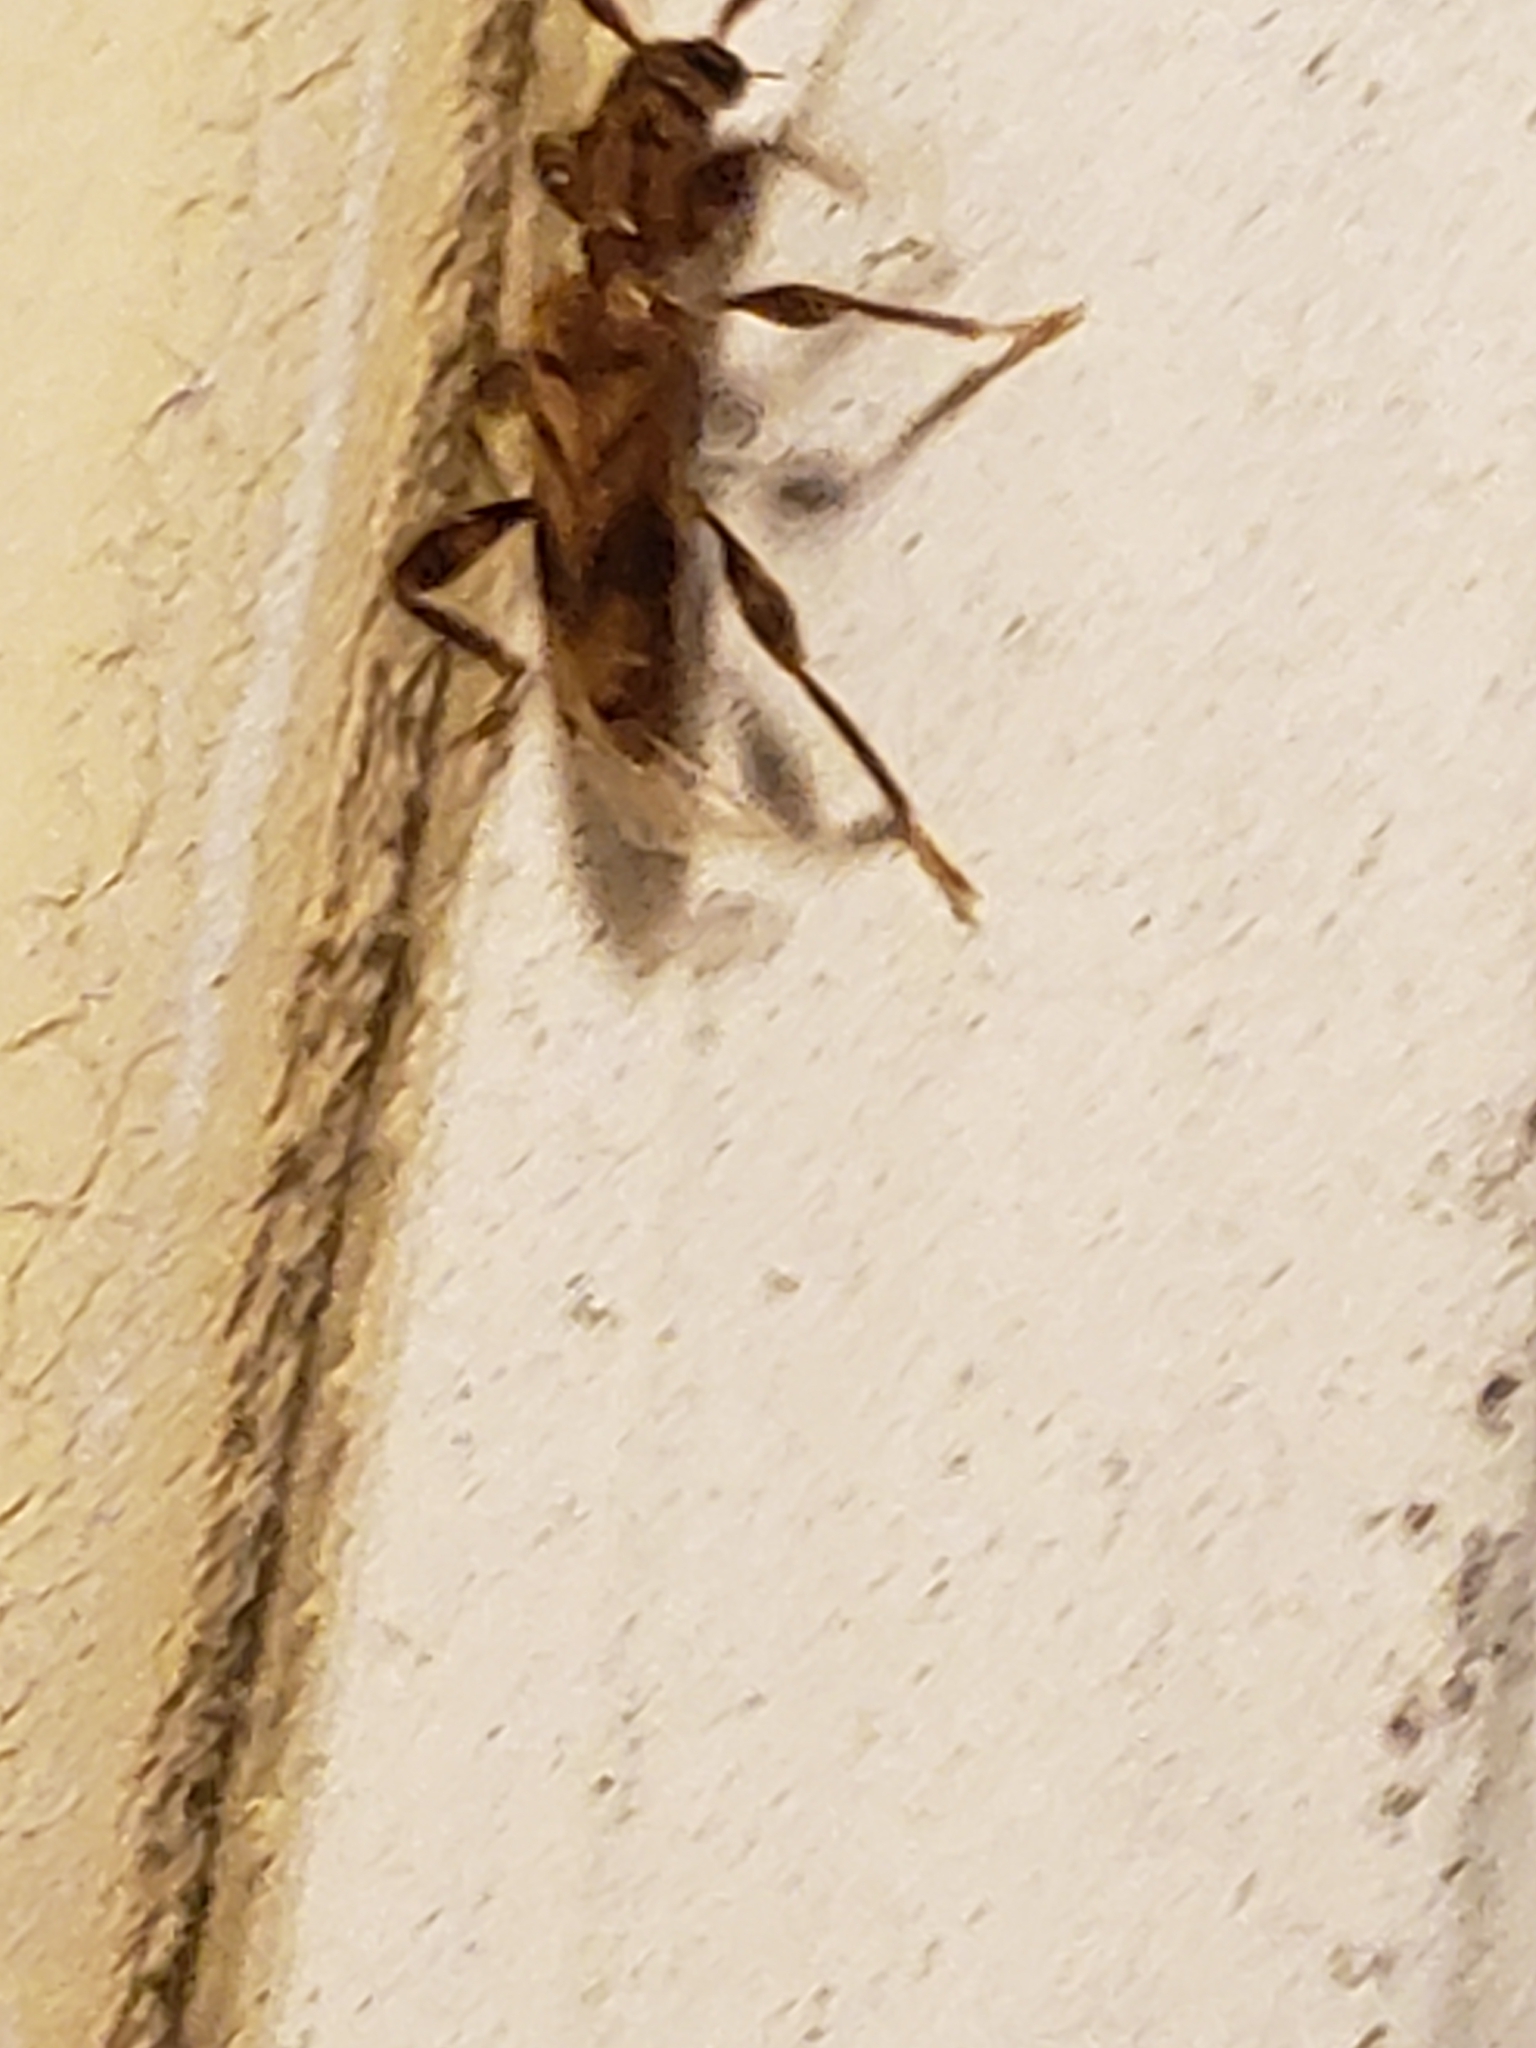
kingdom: Animalia
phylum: Arthropoda
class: Insecta
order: Coleoptera
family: Cerambycidae
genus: Obrium
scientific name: Obrium maculatum
